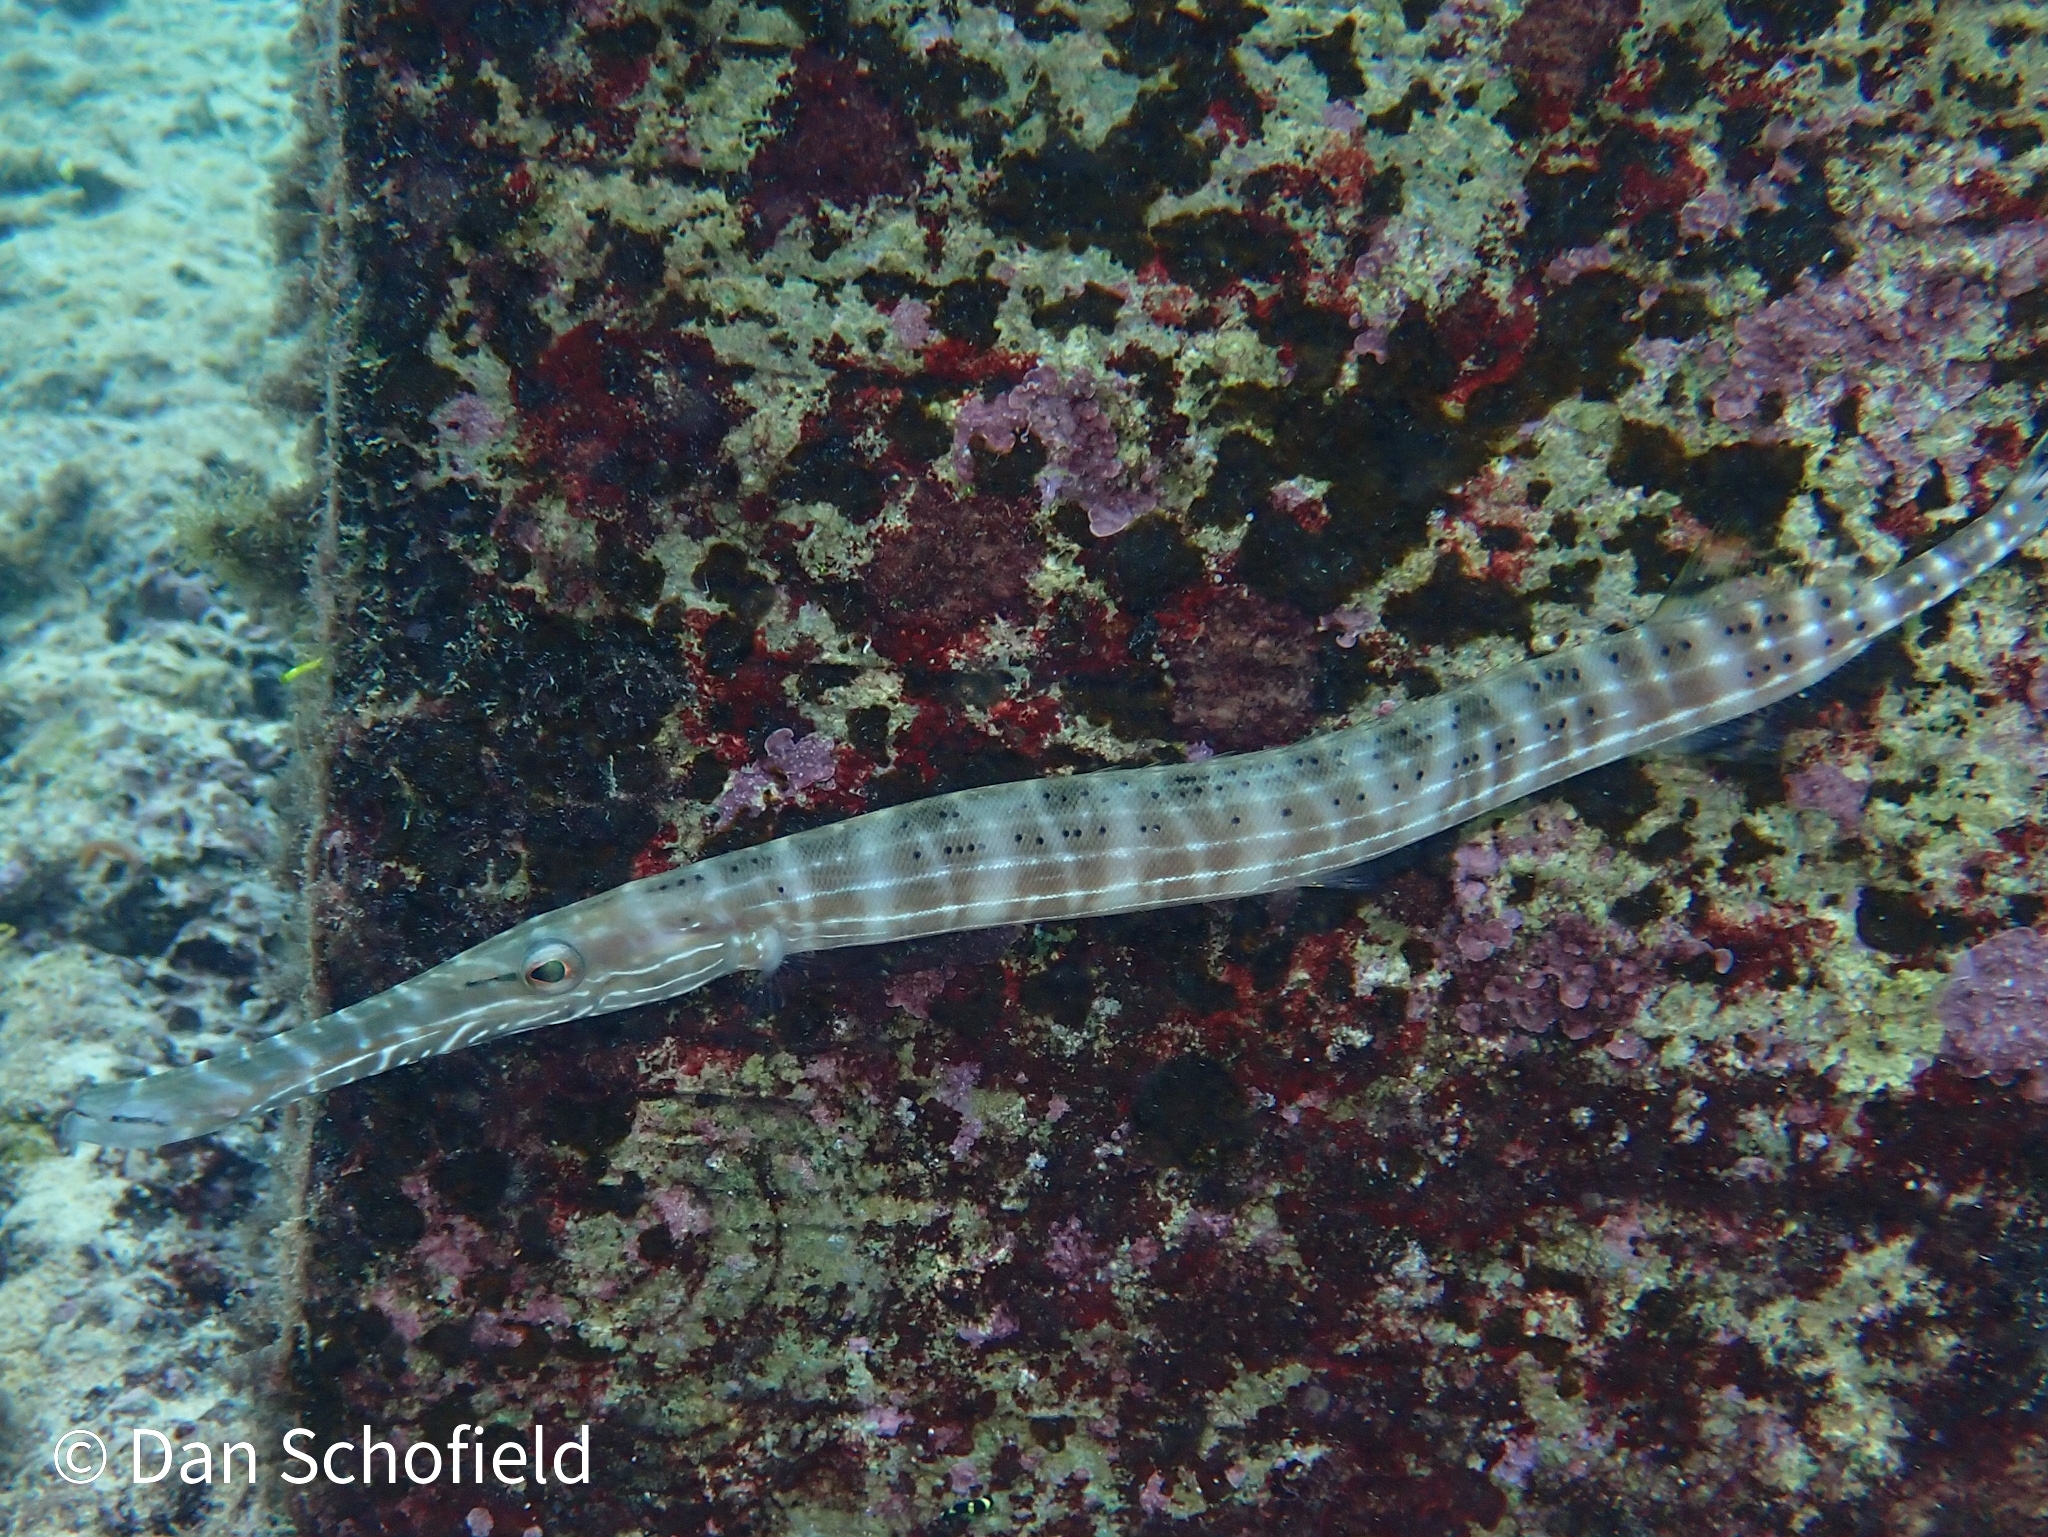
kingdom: Animalia
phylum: Chordata
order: Syngnathiformes
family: Aulostomidae
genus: Aulostomus
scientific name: Aulostomus maculatus
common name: West atlantic trumpetfish
